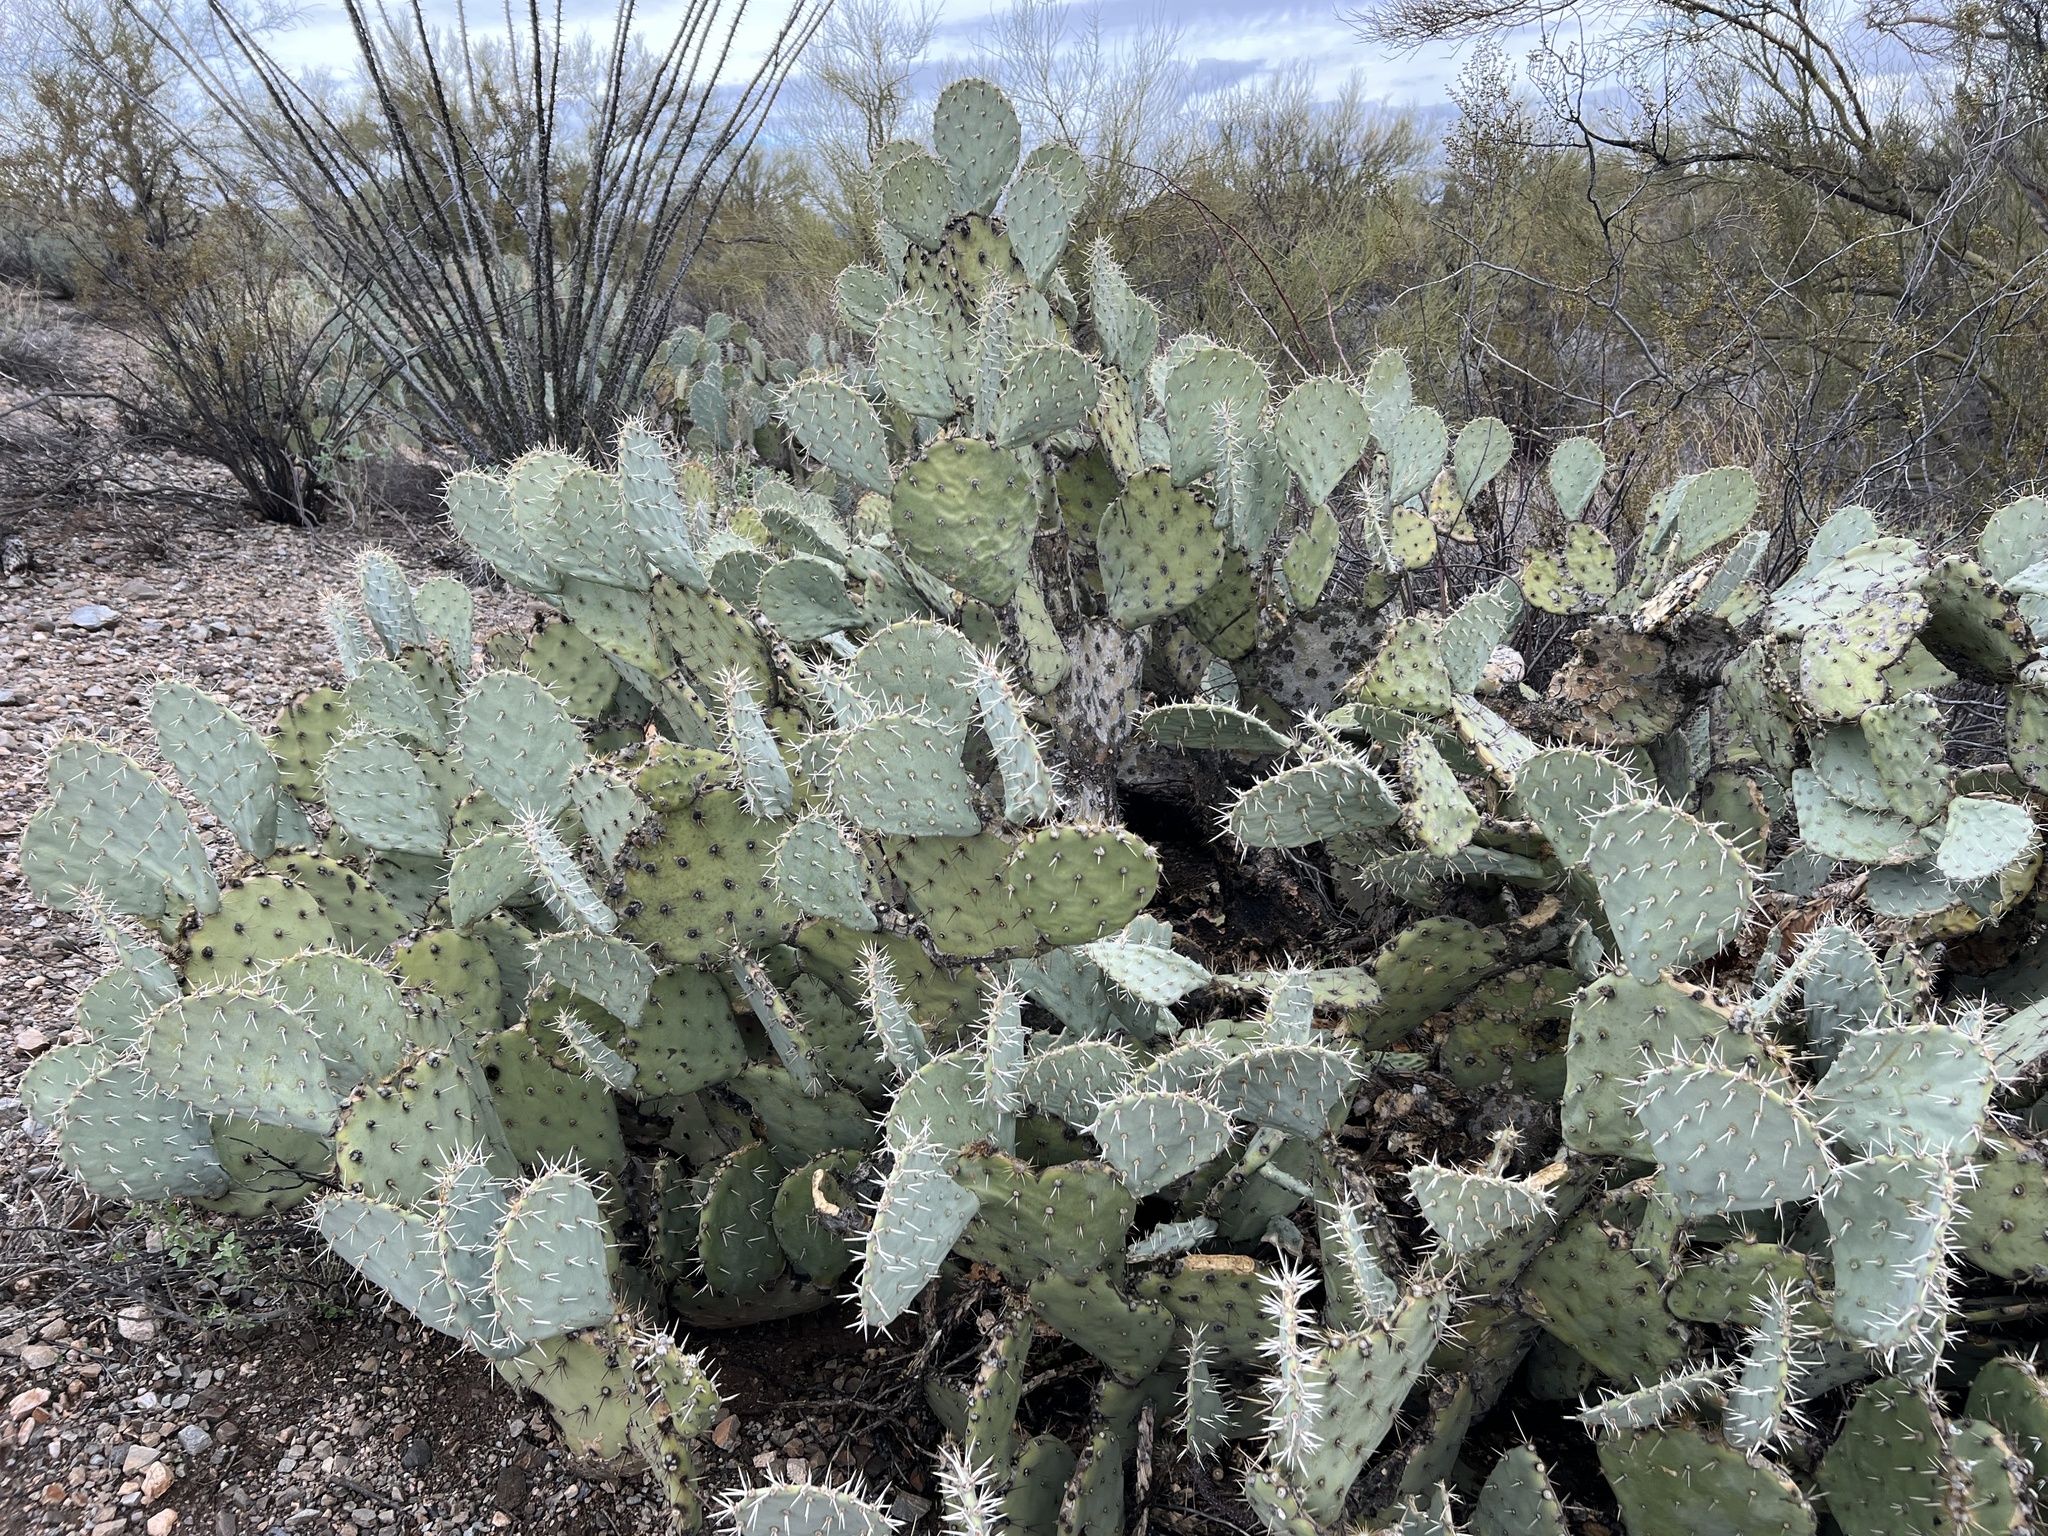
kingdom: Plantae
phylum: Tracheophyta
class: Magnoliopsida
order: Caryophyllales
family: Cactaceae
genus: Opuntia
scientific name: Opuntia engelmannii
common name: Cactus-apple
